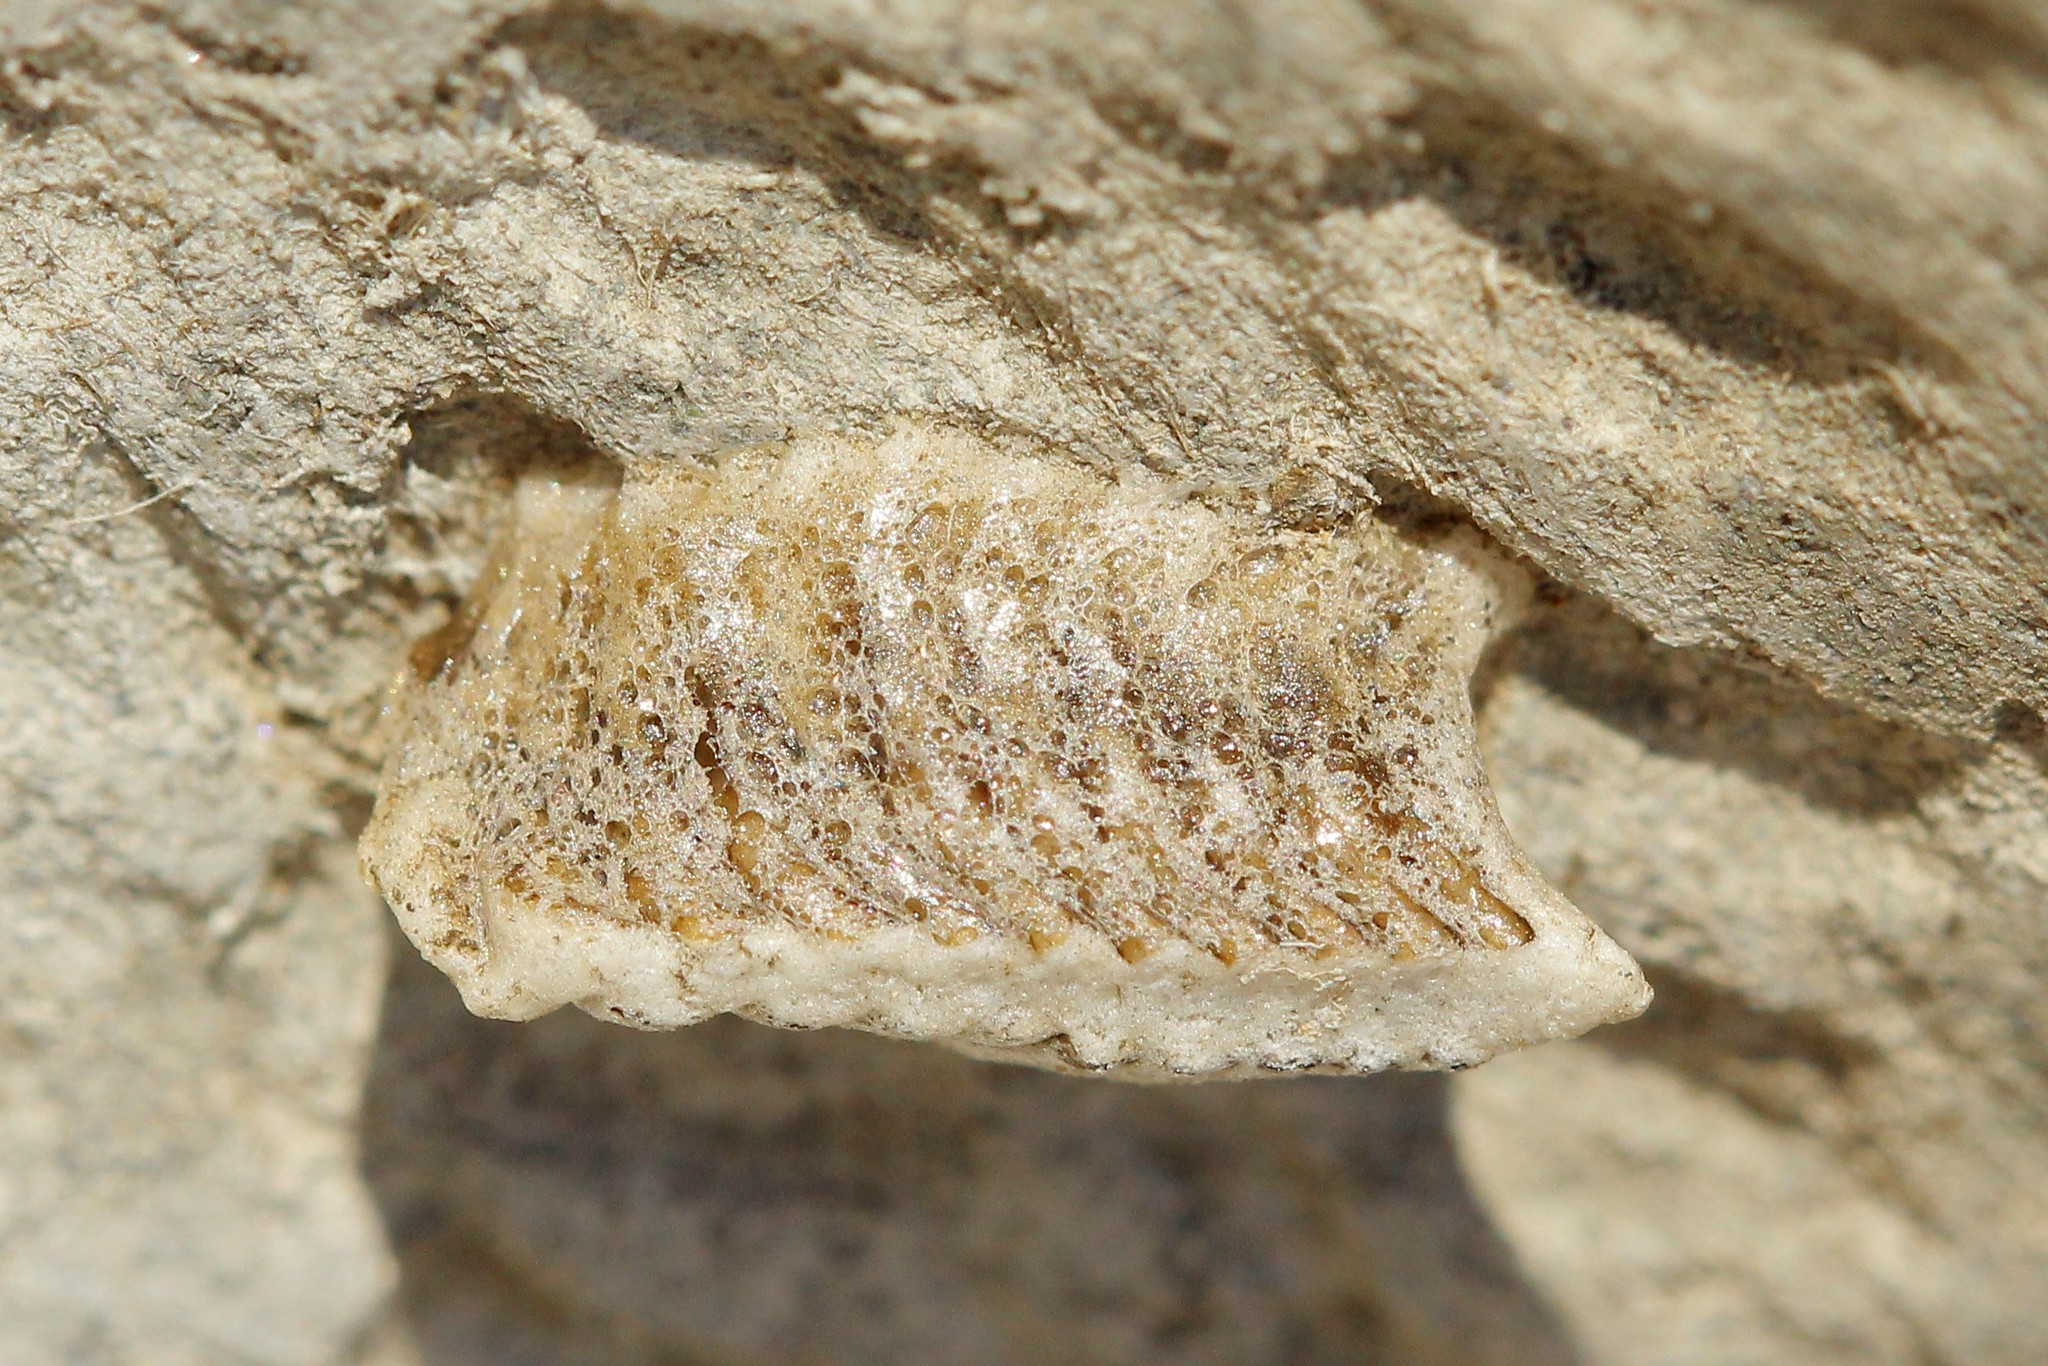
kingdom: Animalia
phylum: Arthropoda
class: Insecta
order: Mantodea
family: Eremiaphilidae
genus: Iris
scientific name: Iris polystictica
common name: Dot-winged mantis
